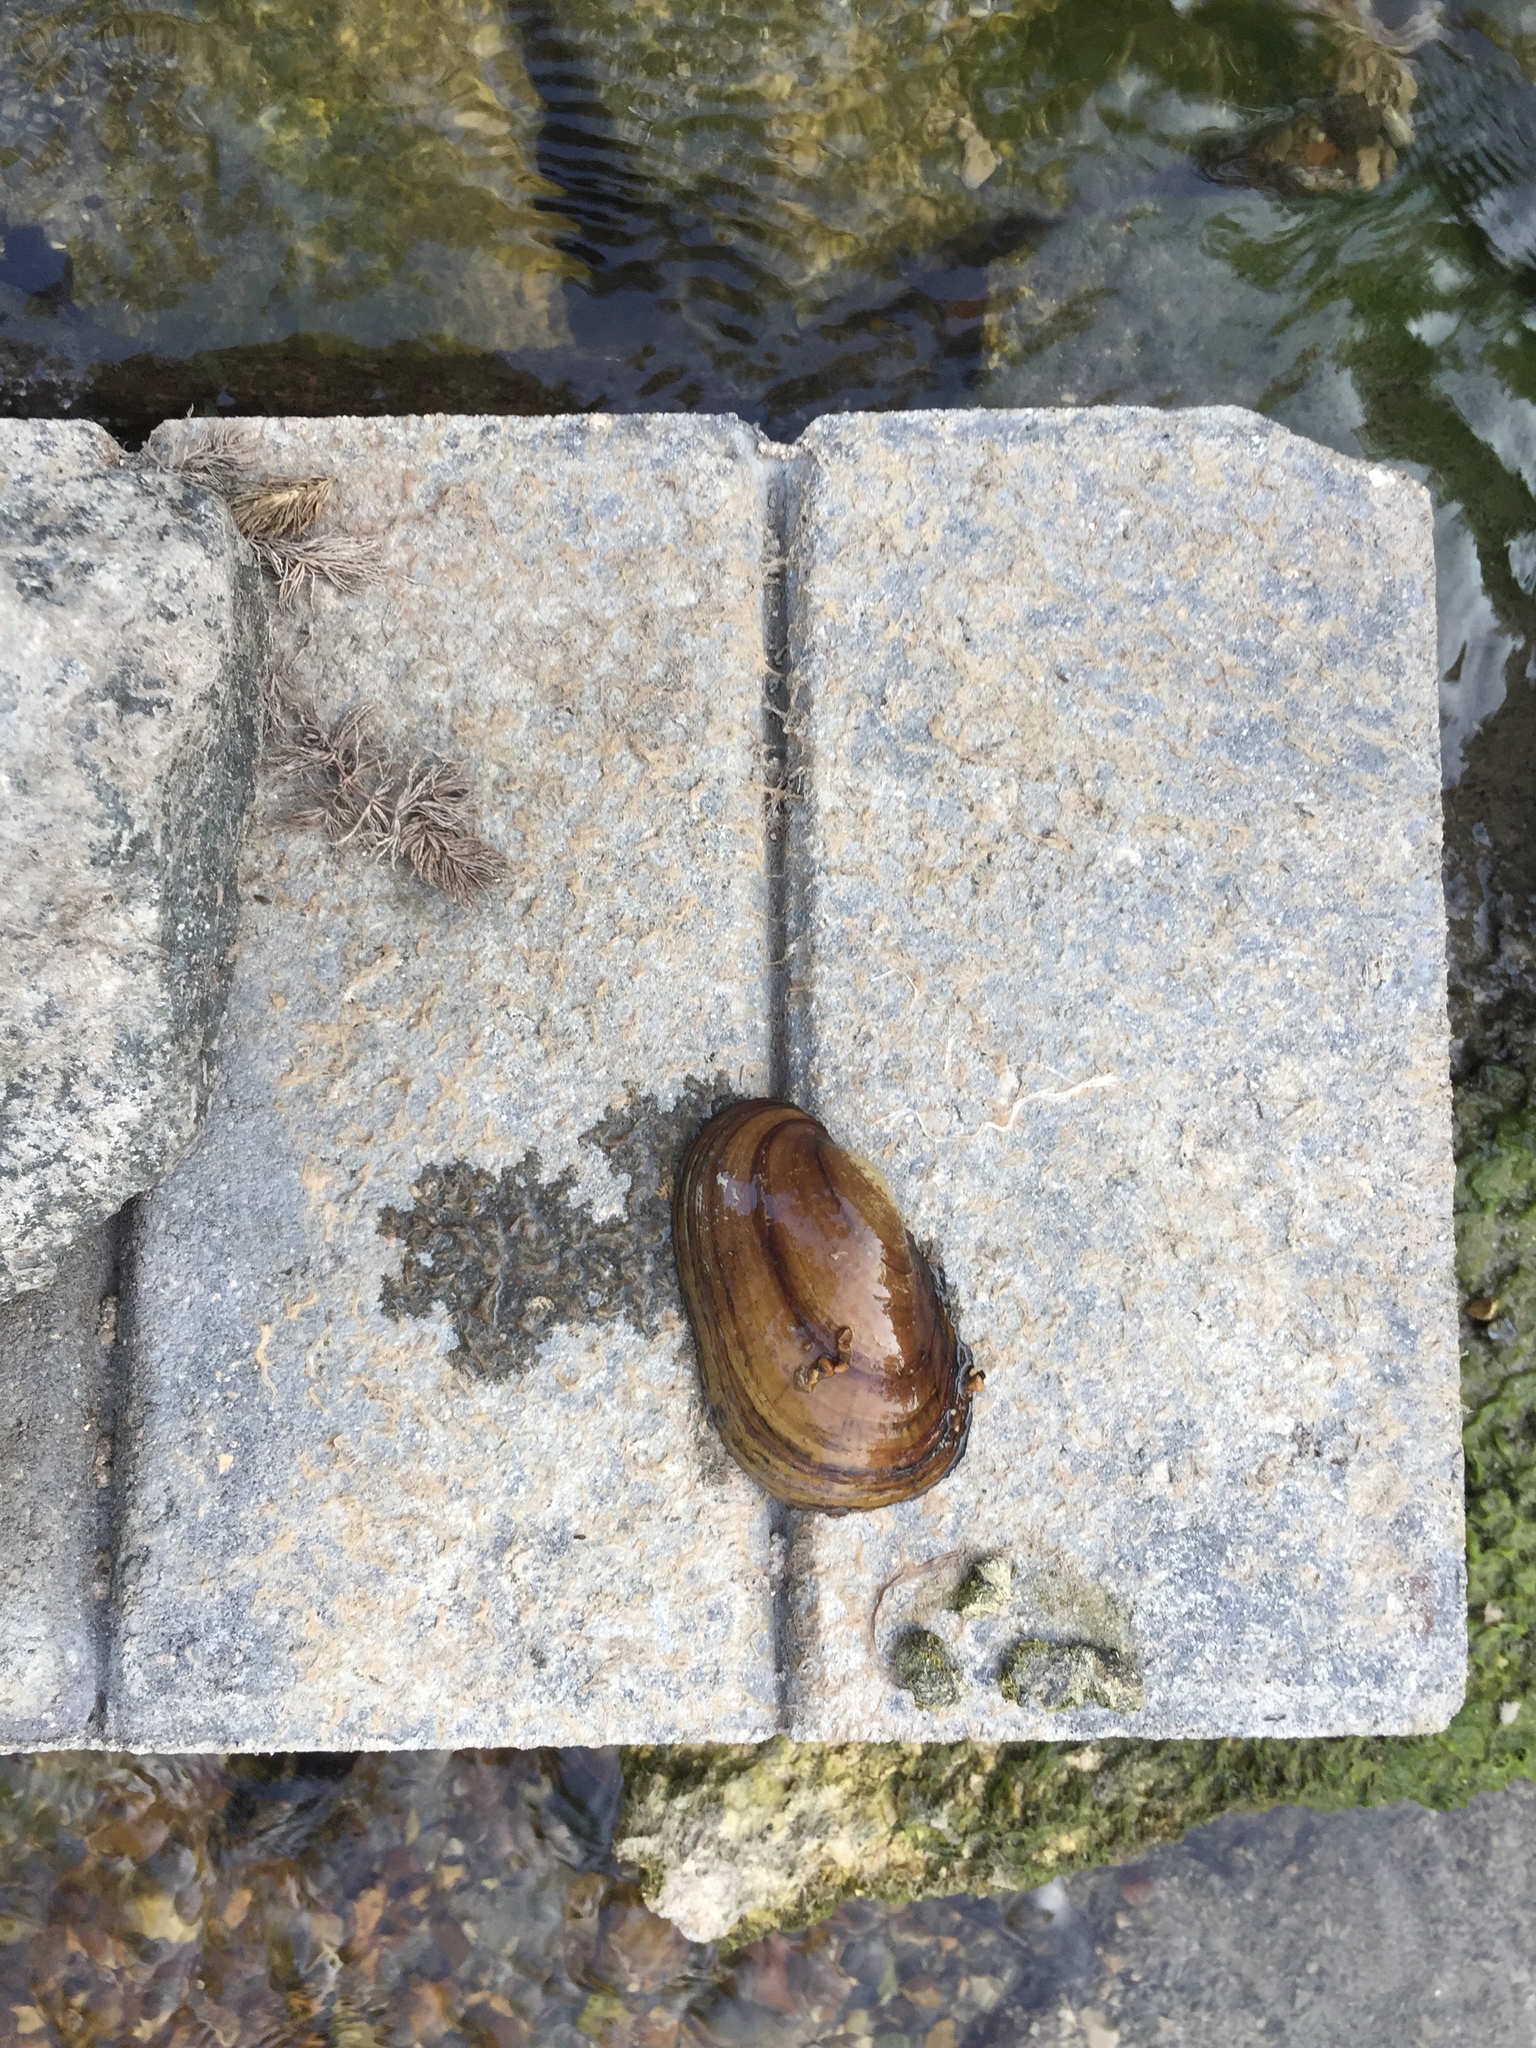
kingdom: Animalia
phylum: Mollusca
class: Bivalvia
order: Unionida
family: Unionidae
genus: Lampsilis
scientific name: Lampsilis siliquoidea
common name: Fatmucket
